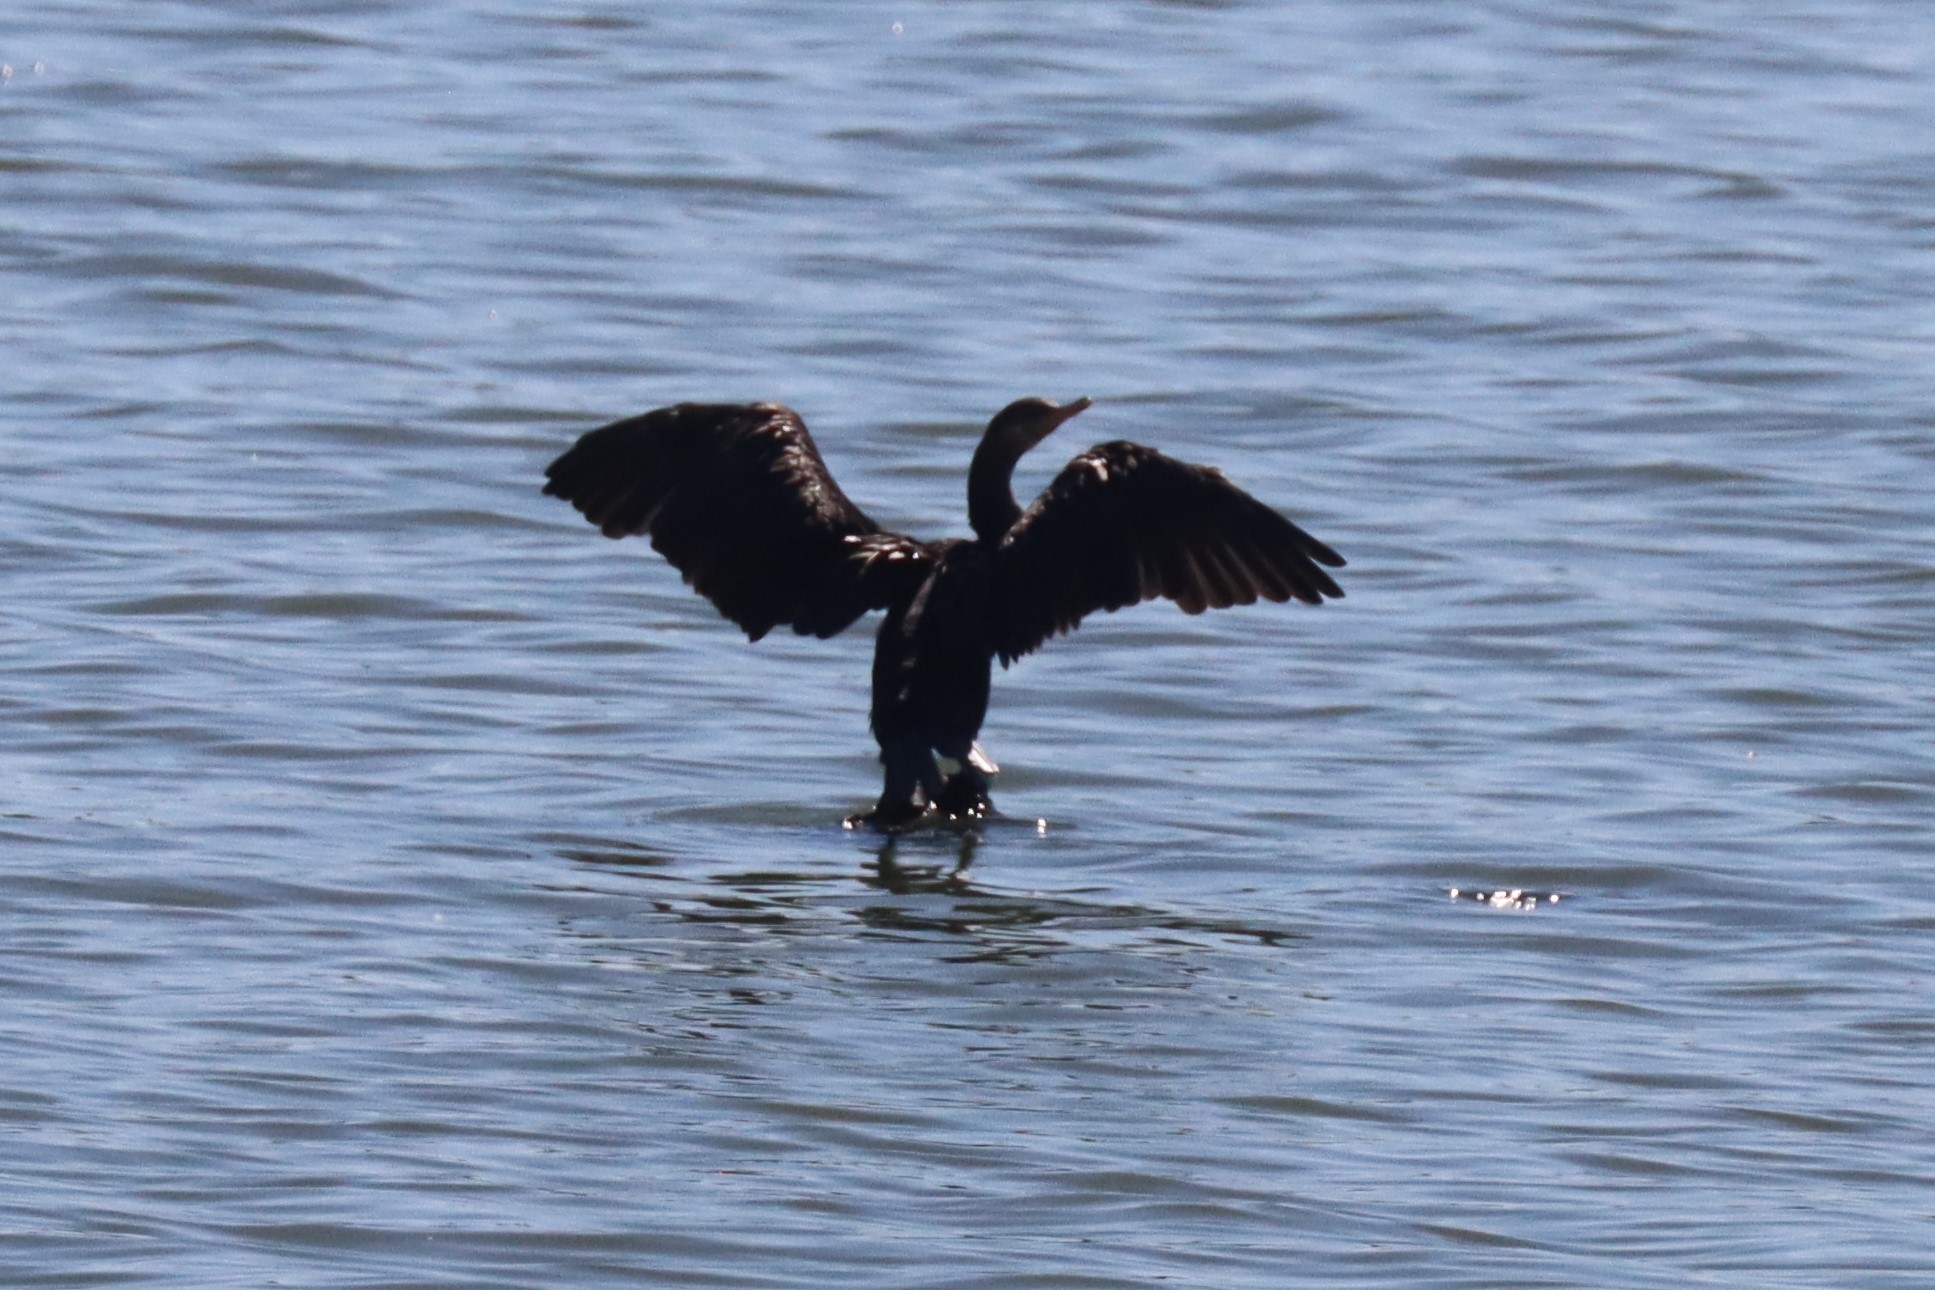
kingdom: Animalia
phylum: Chordata
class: Aves
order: Suliformes
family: Phalacrocoracidae
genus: Phalacrocorax
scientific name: Phalacrocorax brasilianus
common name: Neotropic cormorant
